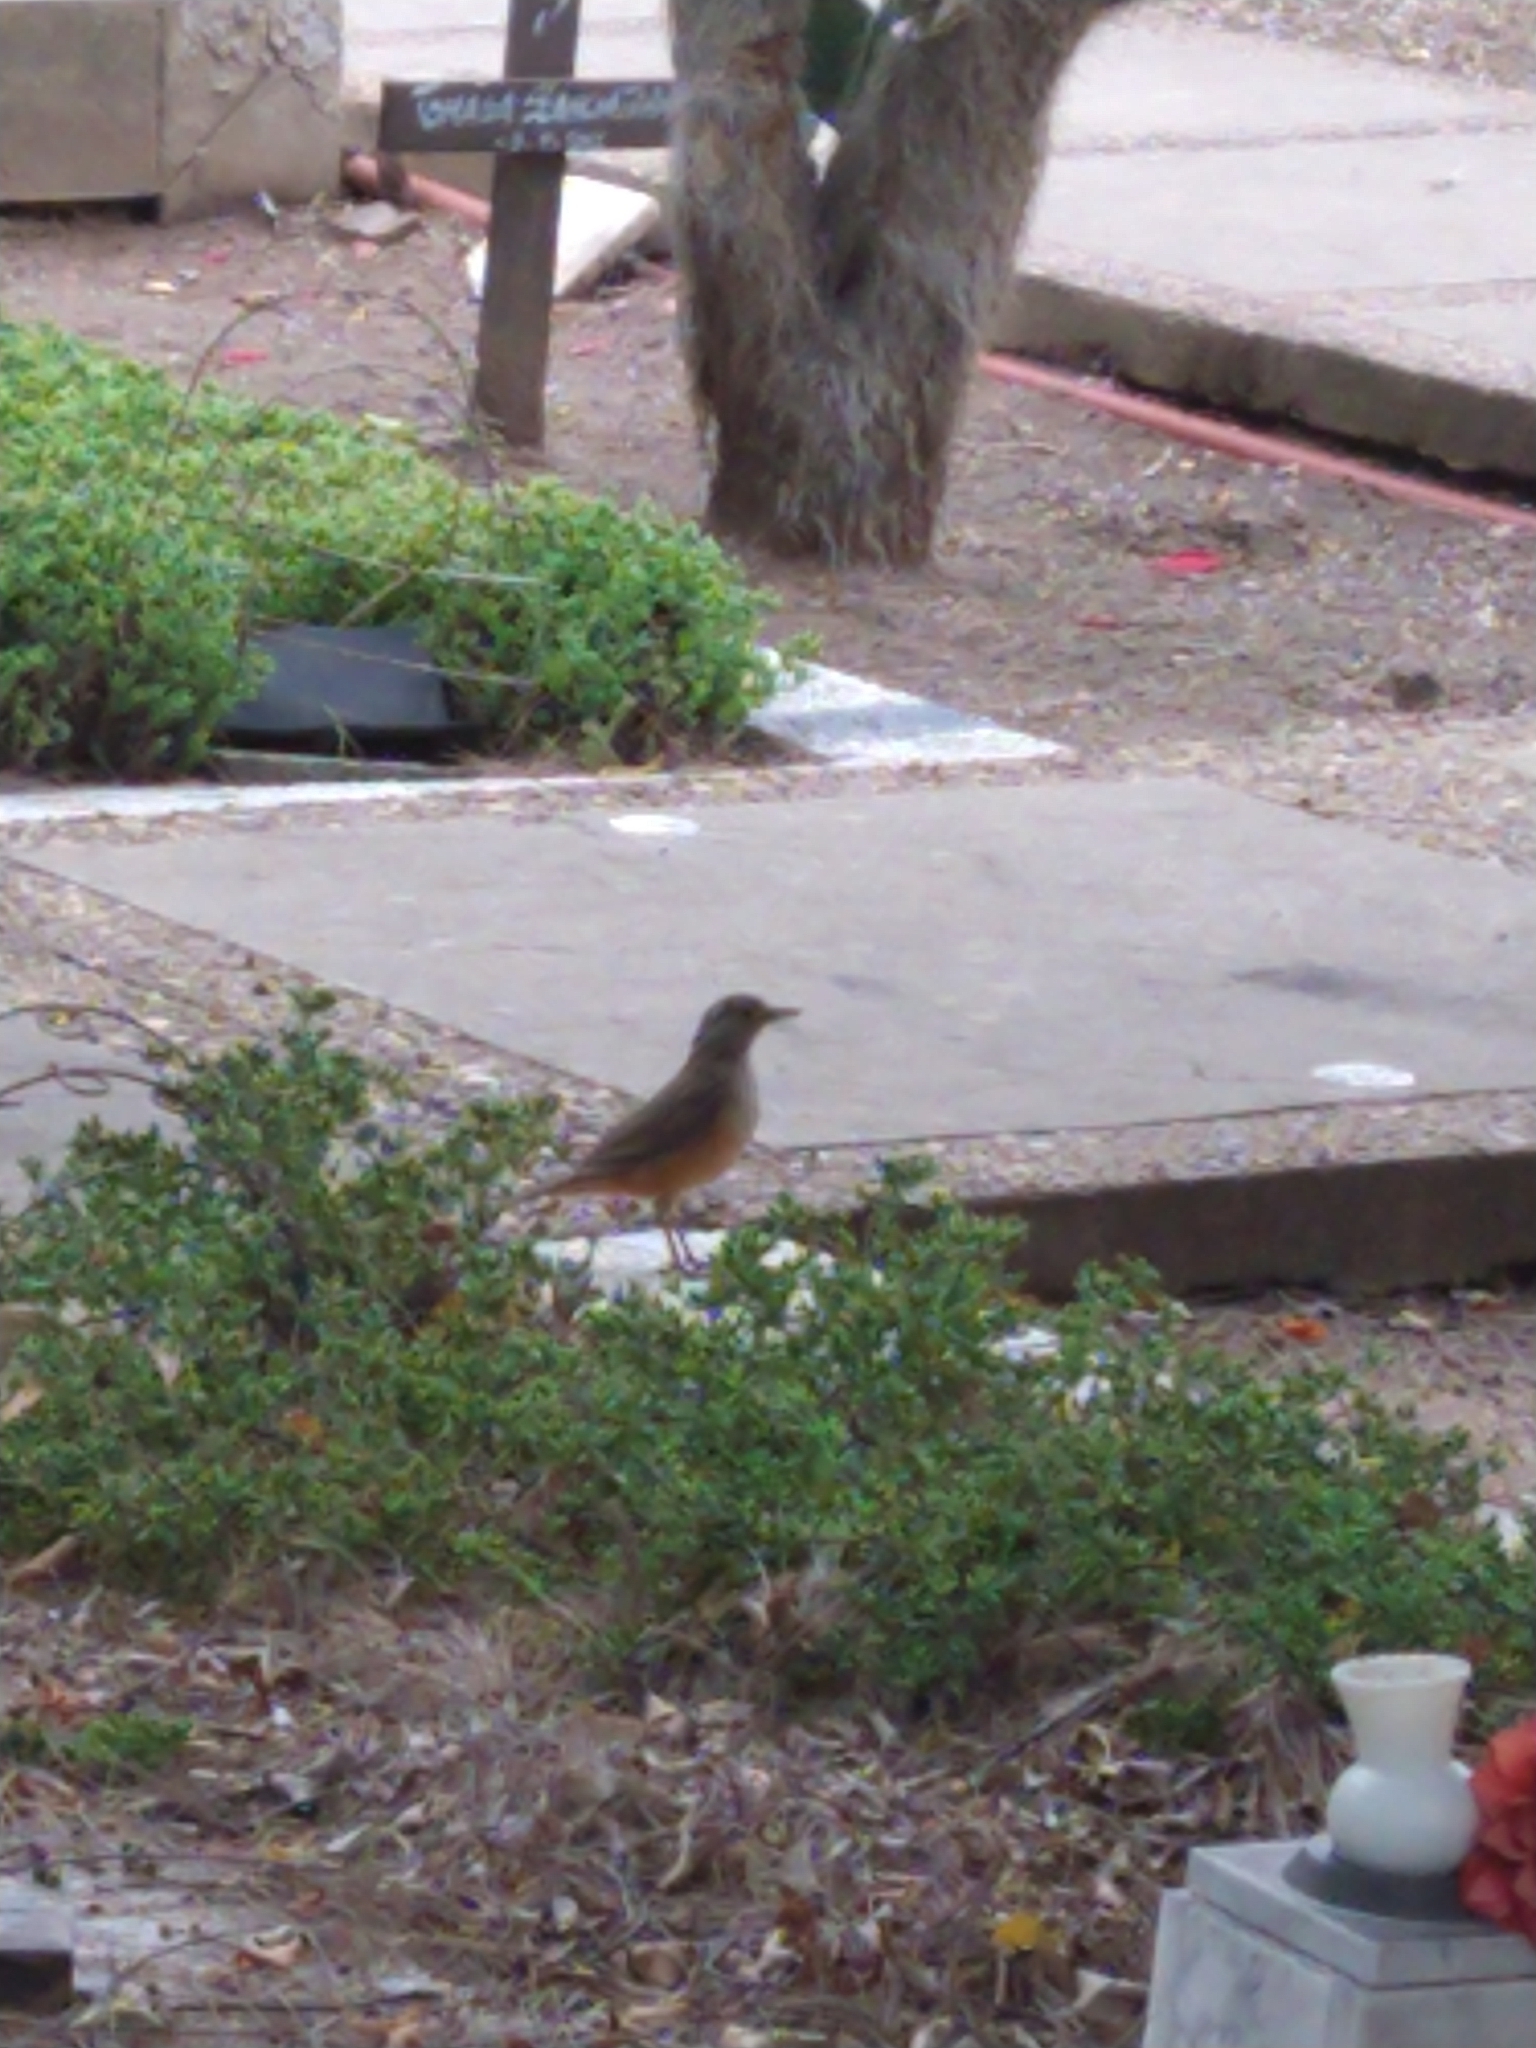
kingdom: Animalia
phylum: Chordata
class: Aves
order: Passeriformes
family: Turdidae
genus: Turdus
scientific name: Turdus rufiventris
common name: Rufous-bellied thrush
